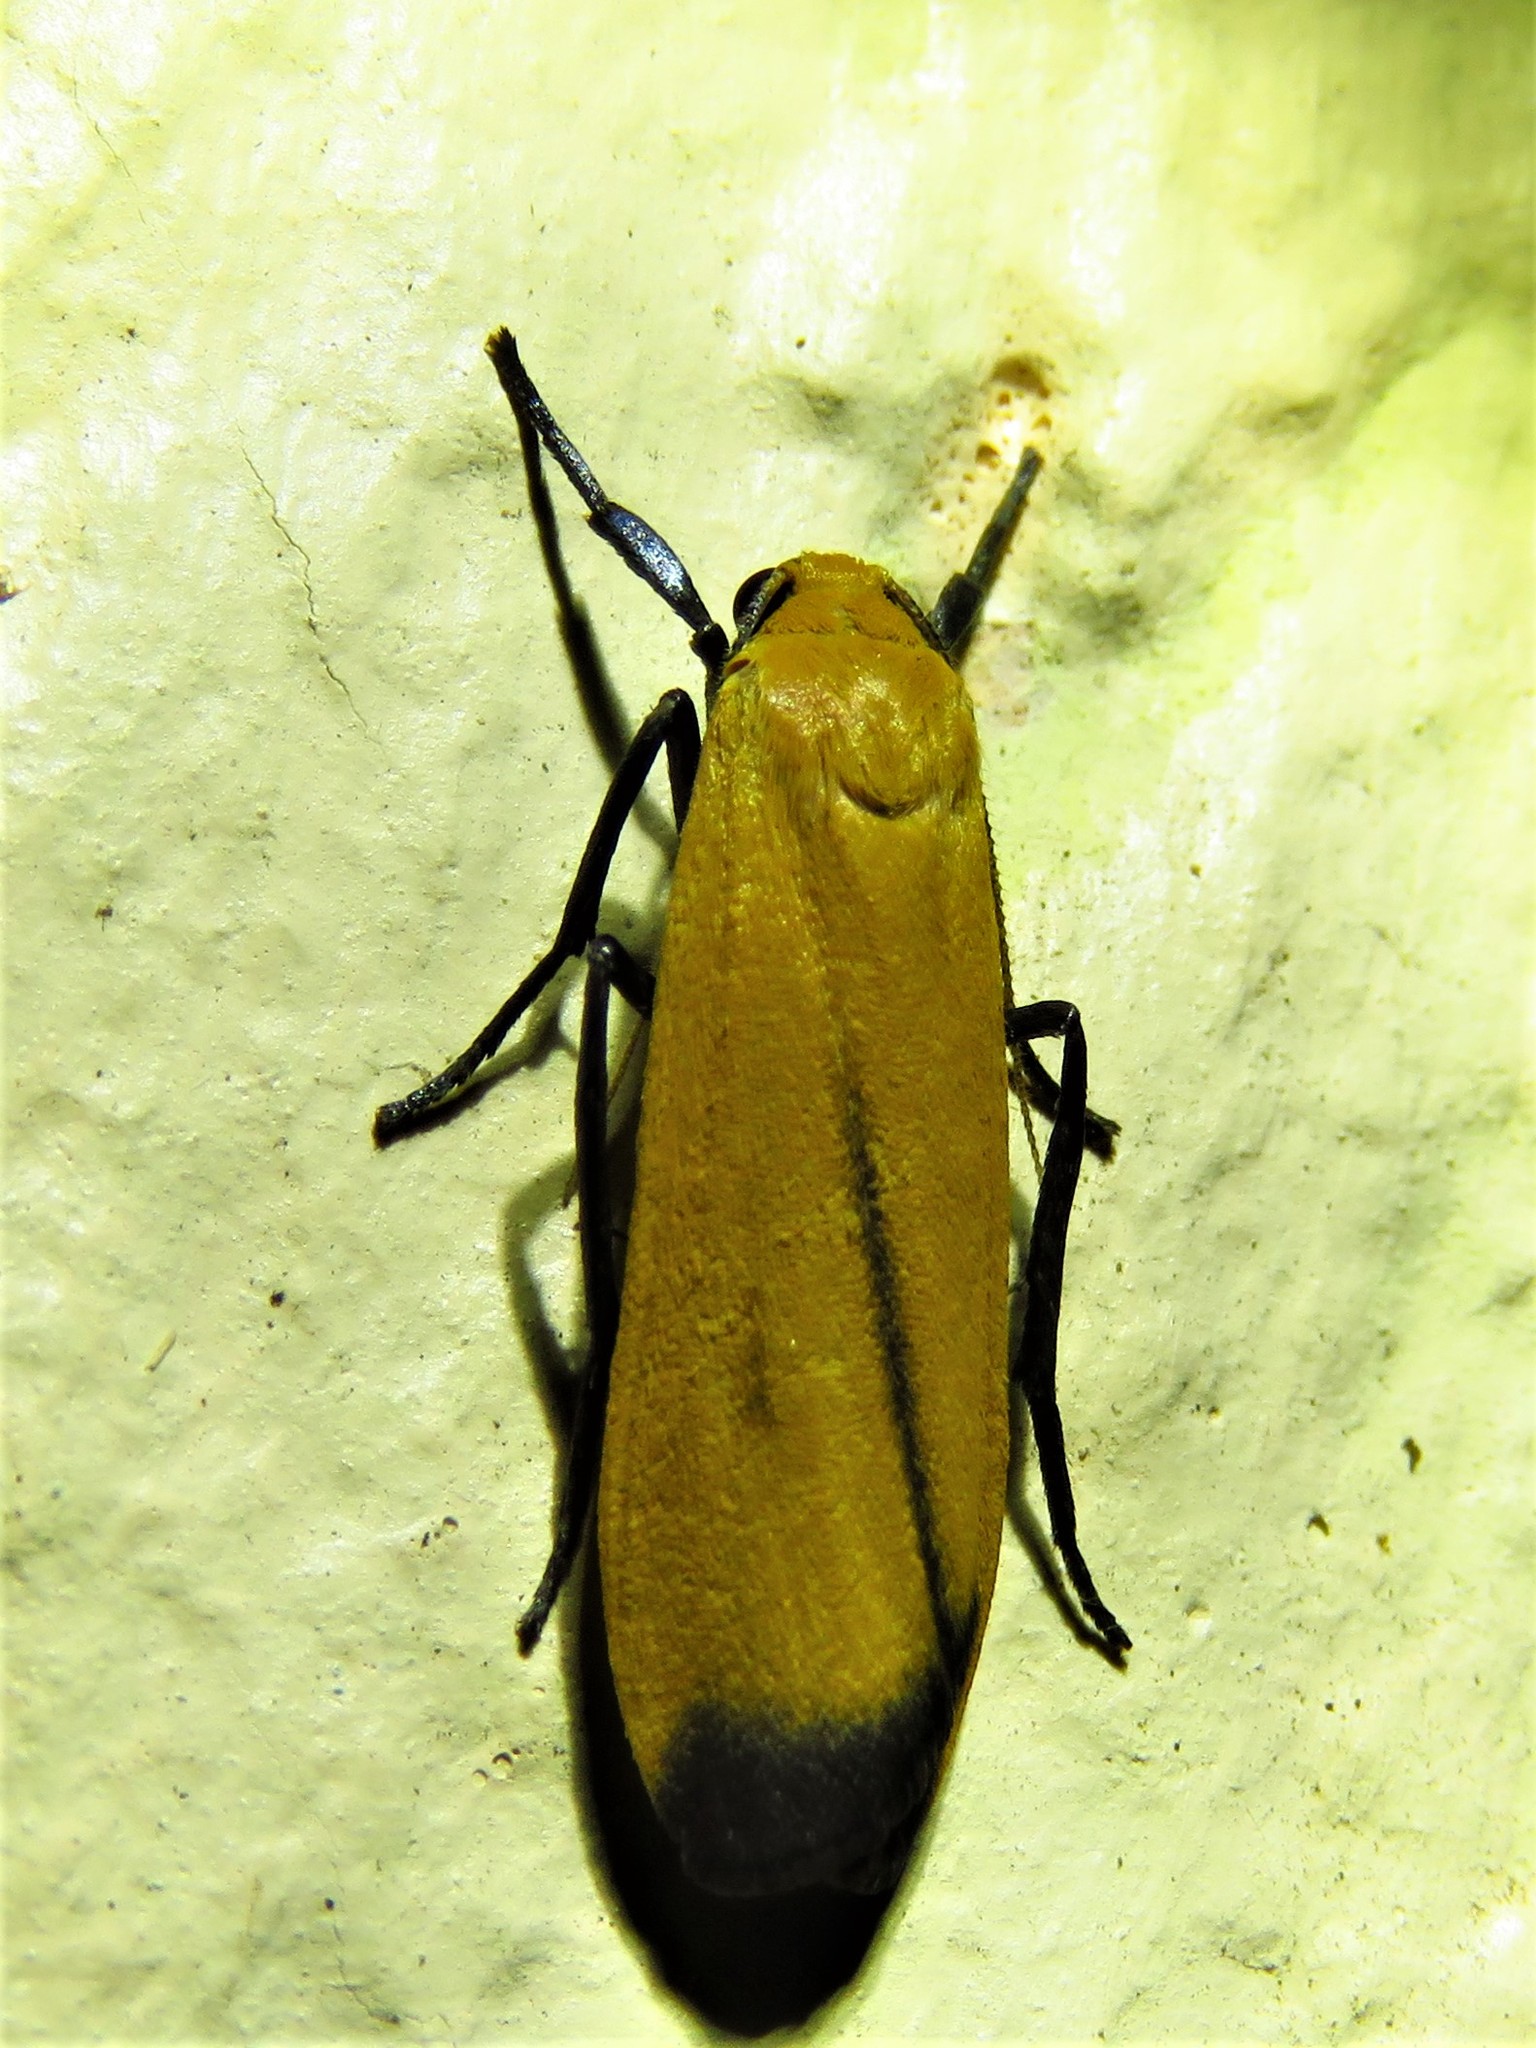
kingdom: Animalia
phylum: Arthropoda
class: Insecta
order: Lepidoptera
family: Erebidae
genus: Muxta
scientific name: Muxta xanthopa
